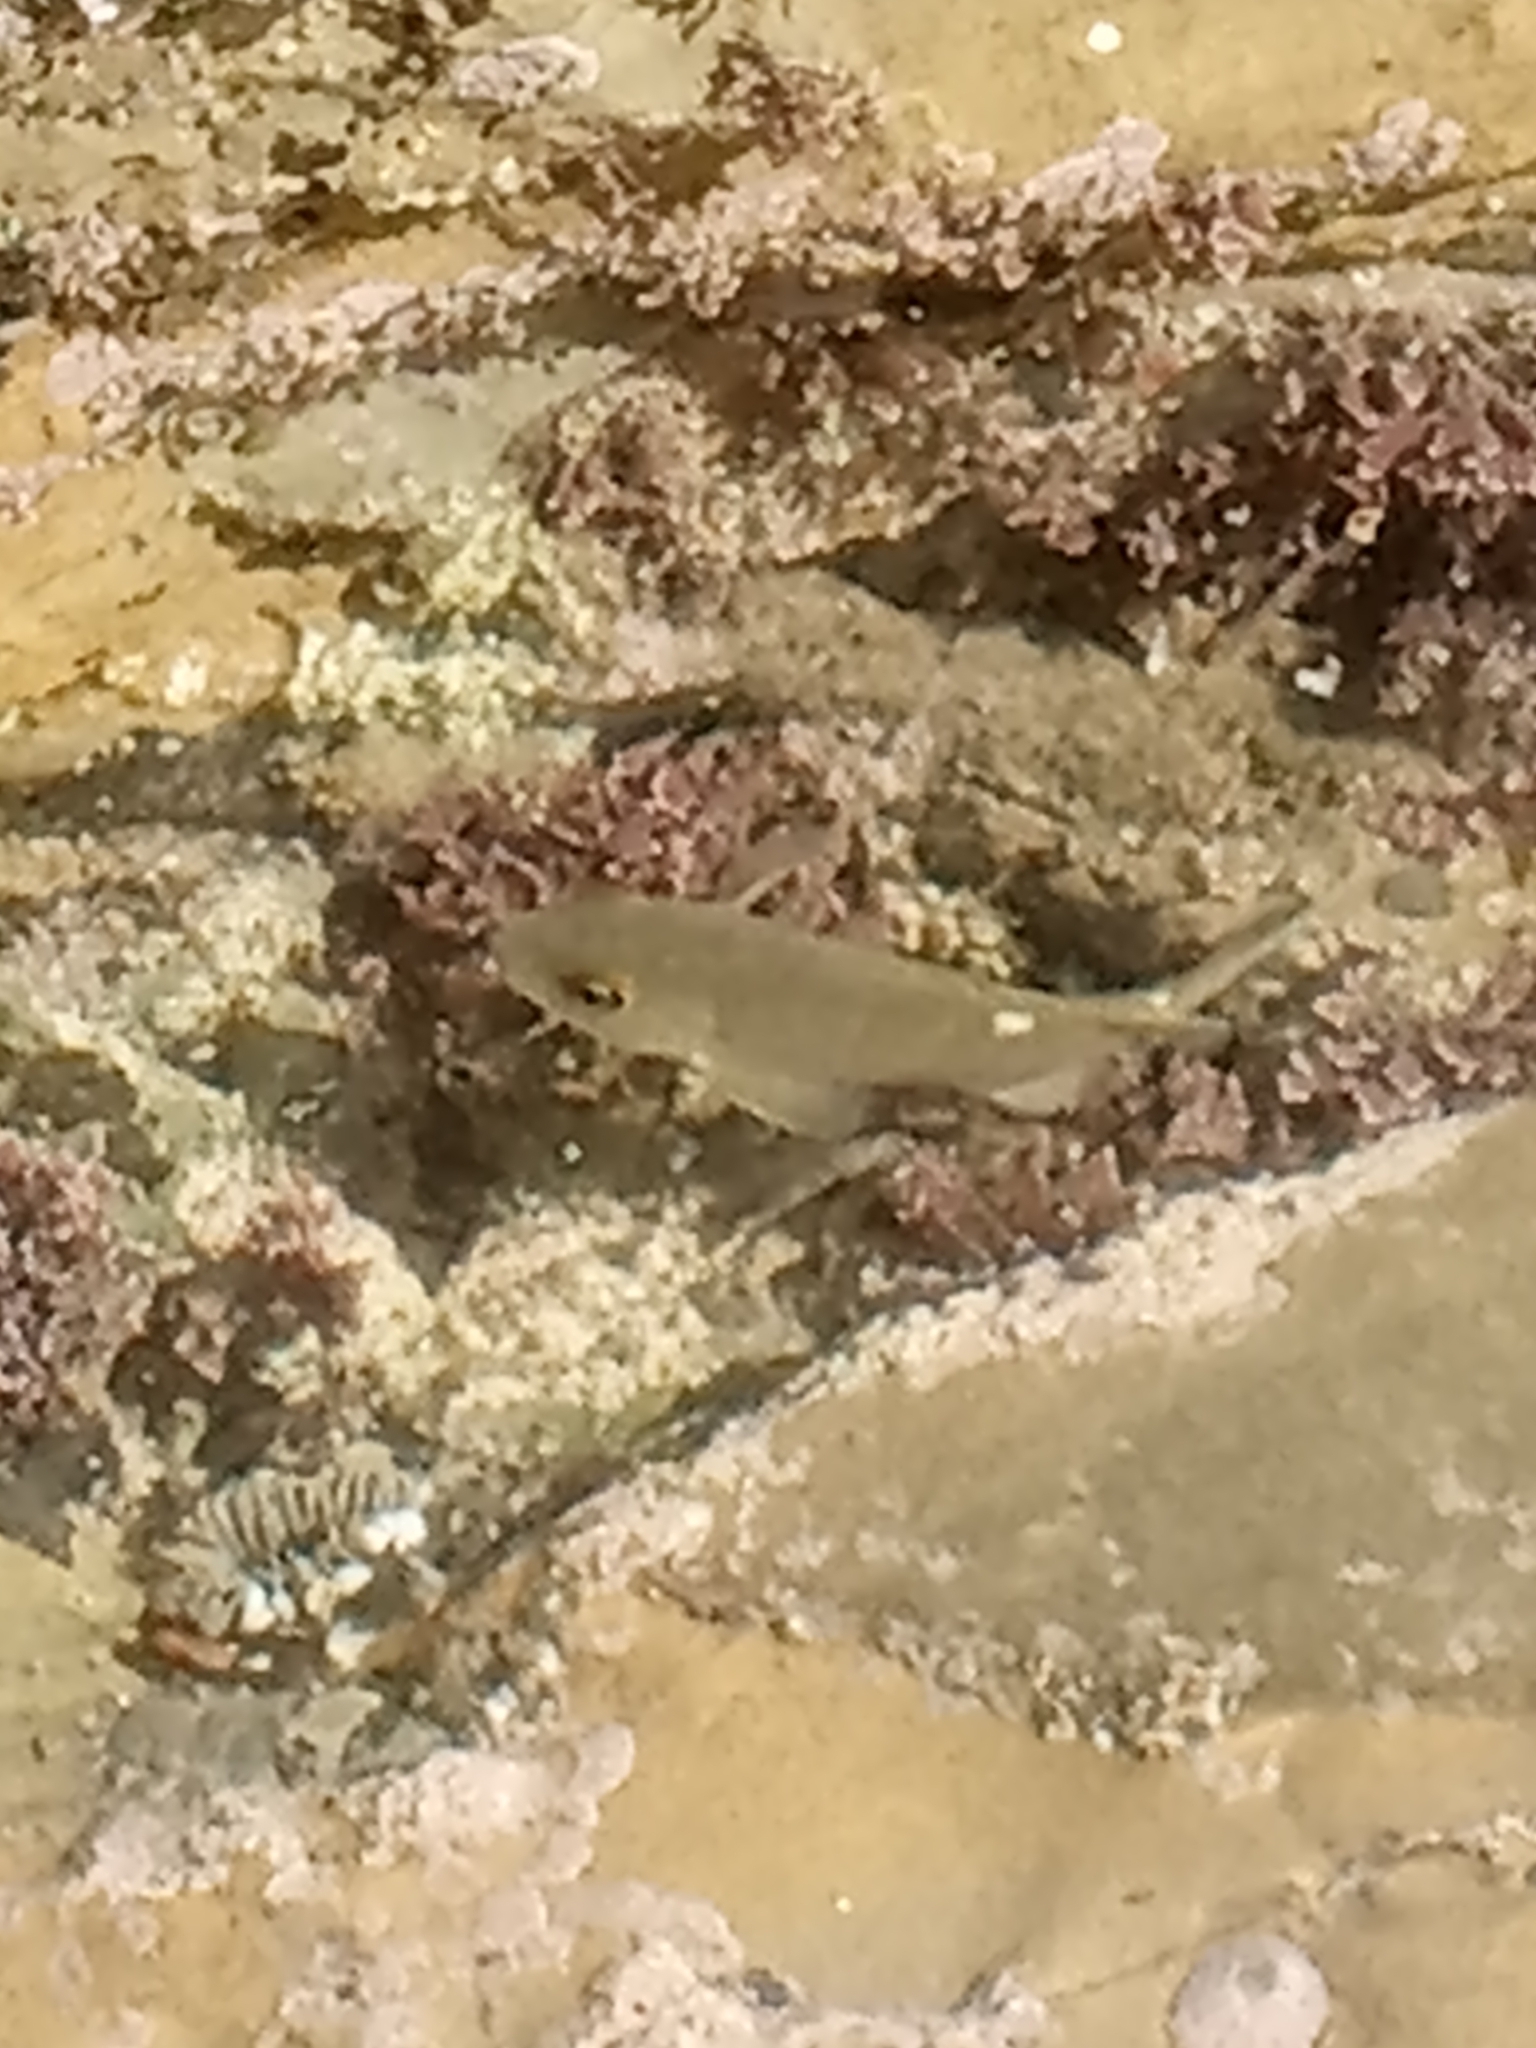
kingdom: Animalia
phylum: Chordata
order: Perciformes
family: Kyphosidae
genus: Girella
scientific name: Girella nigricans
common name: Opaleye
